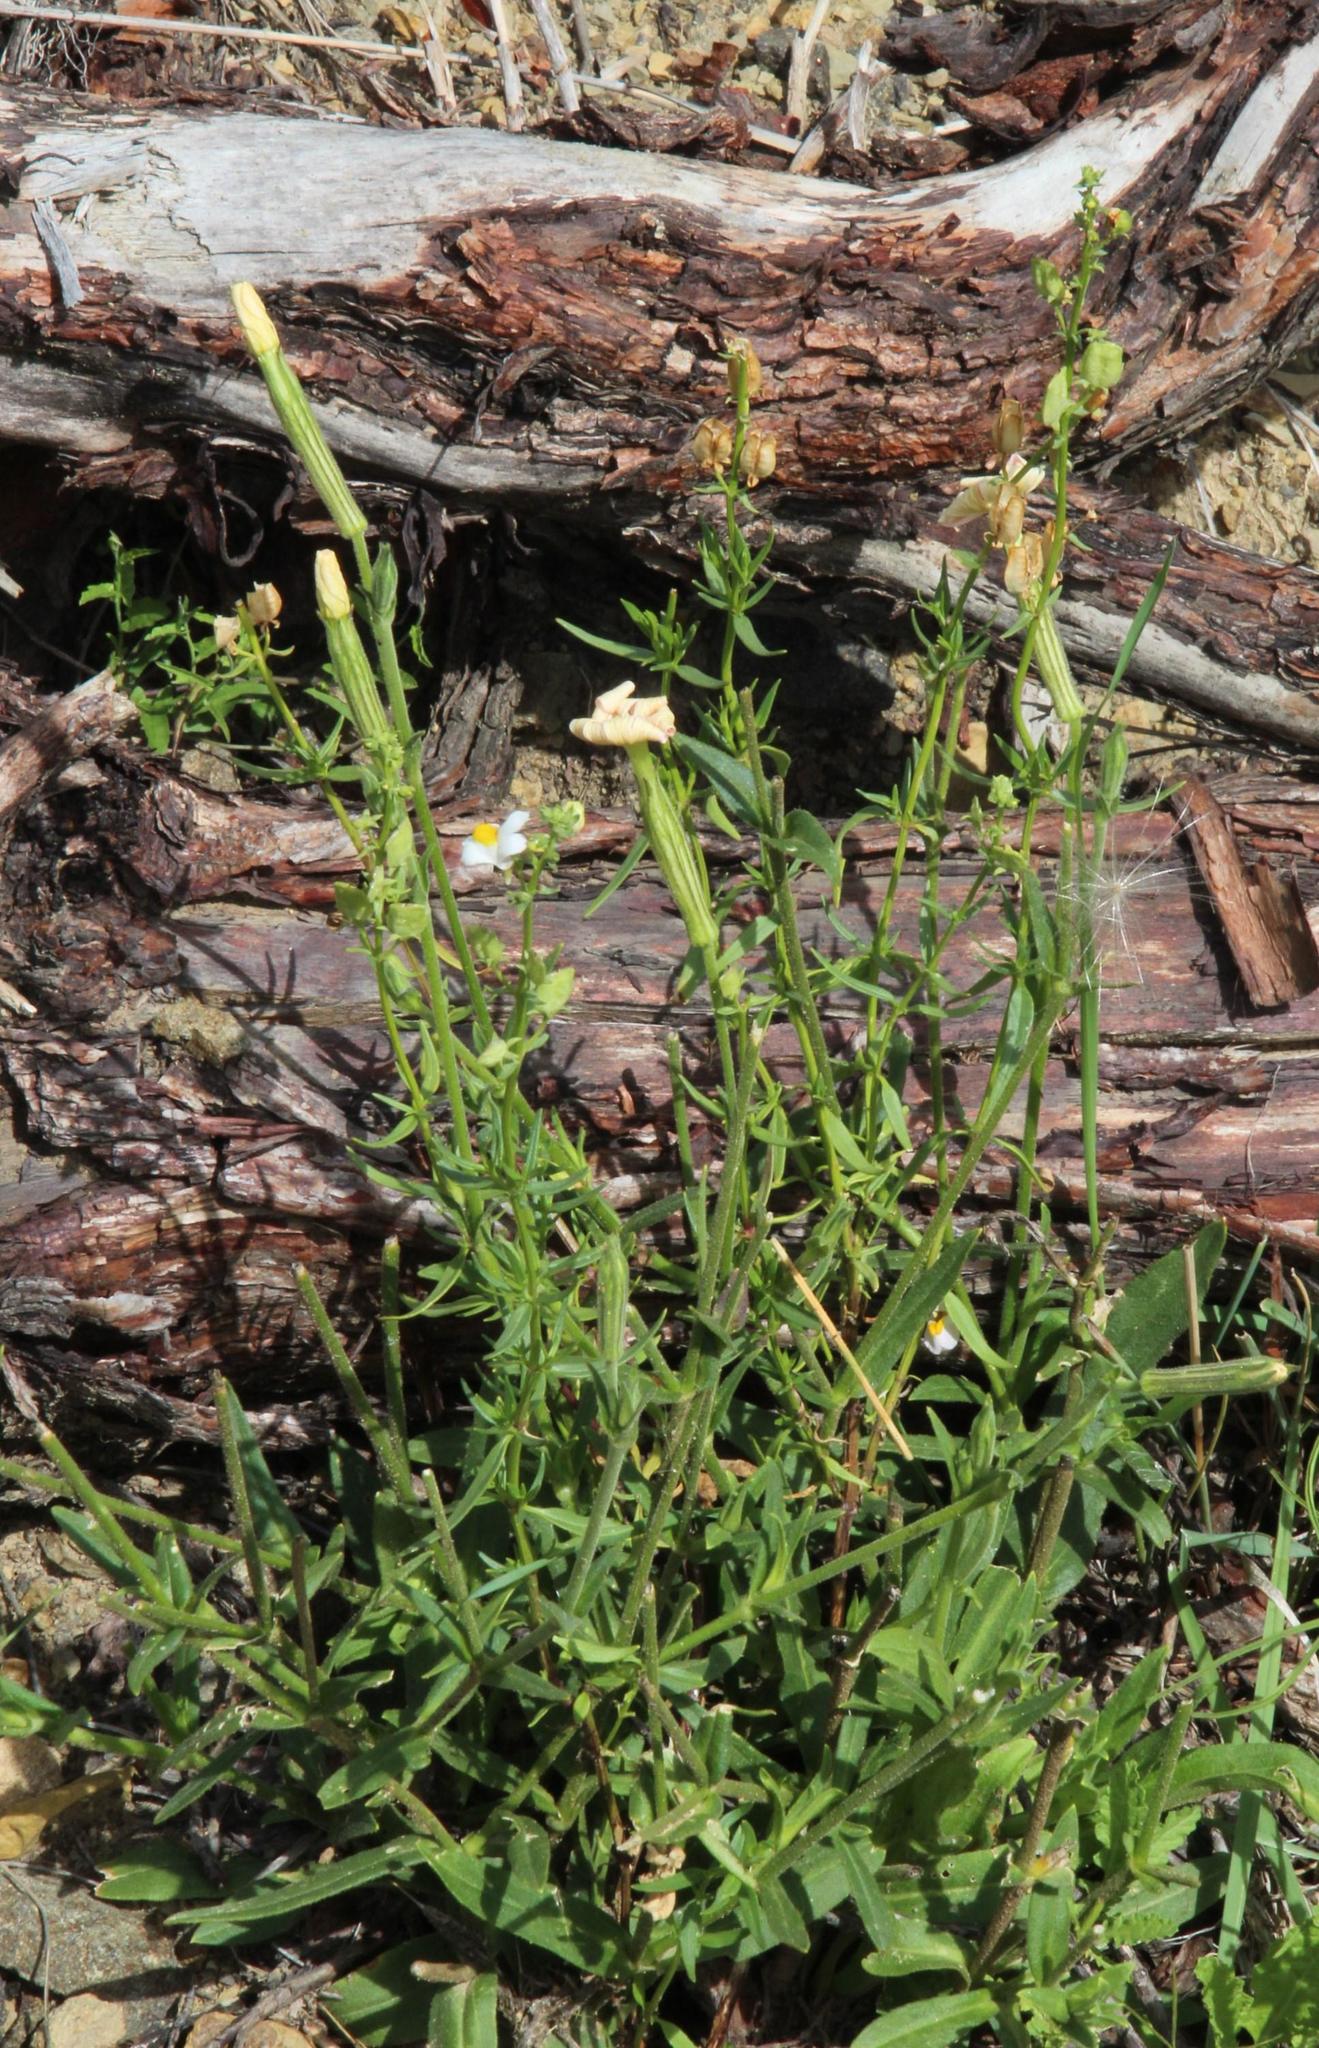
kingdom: Plantae
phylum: Tracheophyta
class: Magnoliopsida
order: Caryophyllales
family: Caryophyllaceae
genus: Silene
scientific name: Silene undulata
